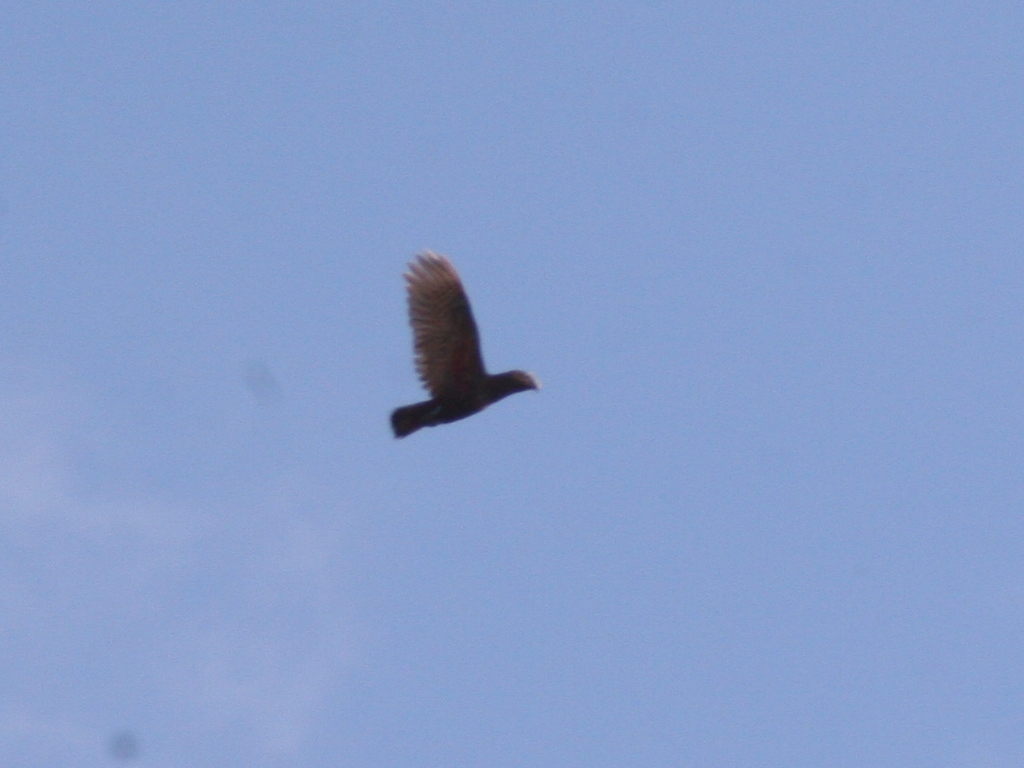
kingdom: Animalia
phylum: Chordata
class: Aves
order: Psittaciformes
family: Psittacidae
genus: Nestor
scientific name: Nestor meridionalis
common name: New zealand kaka
